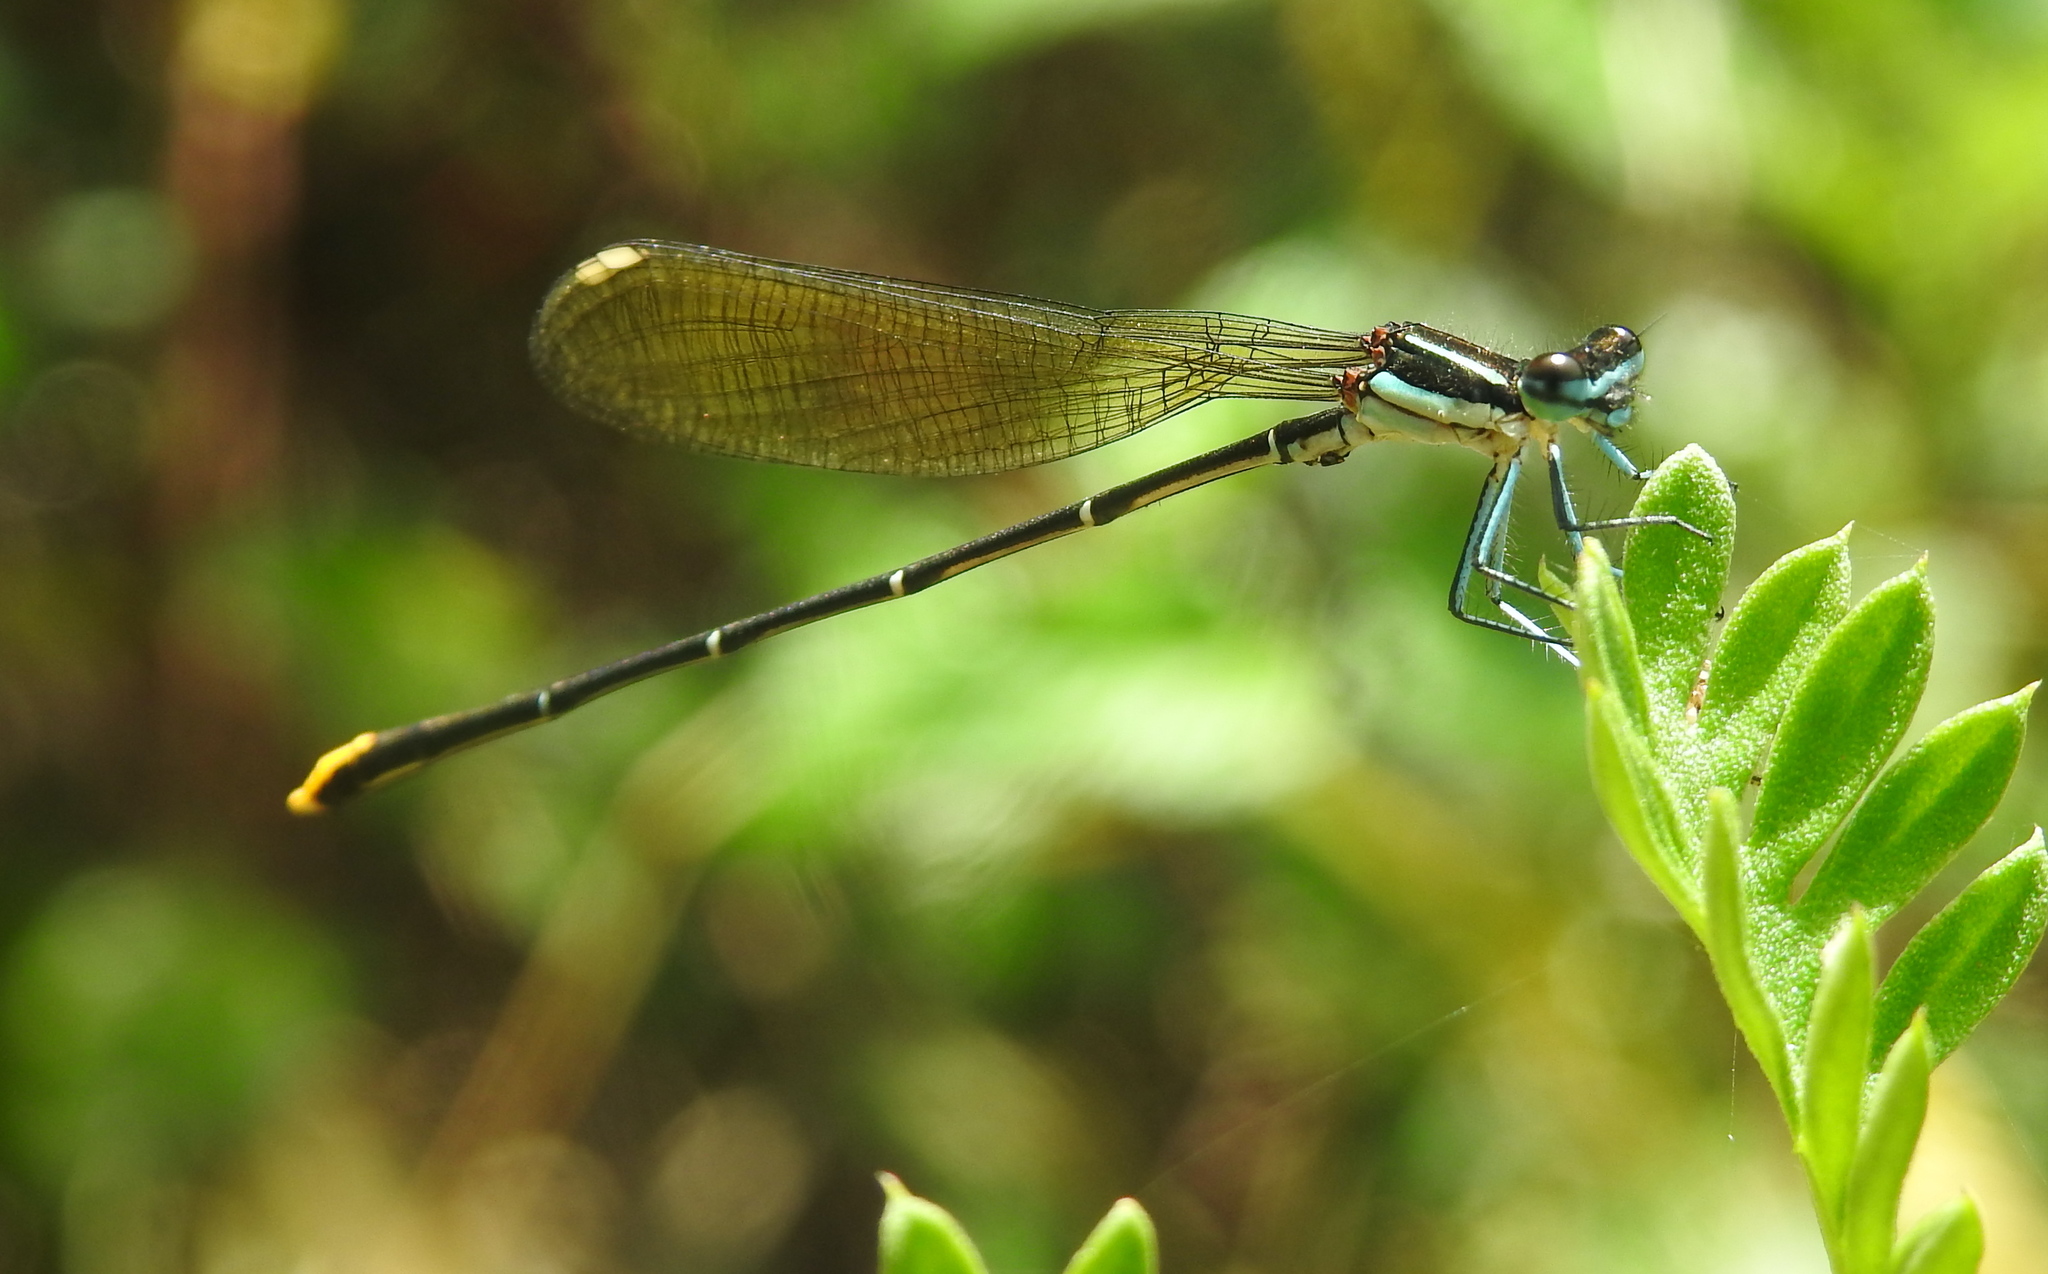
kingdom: Animalia
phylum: Arthropoda
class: Insecta
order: Odonata
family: Platycnemididae
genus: Allocnemis
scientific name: Allocnemis leucosticta
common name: Goldtail
